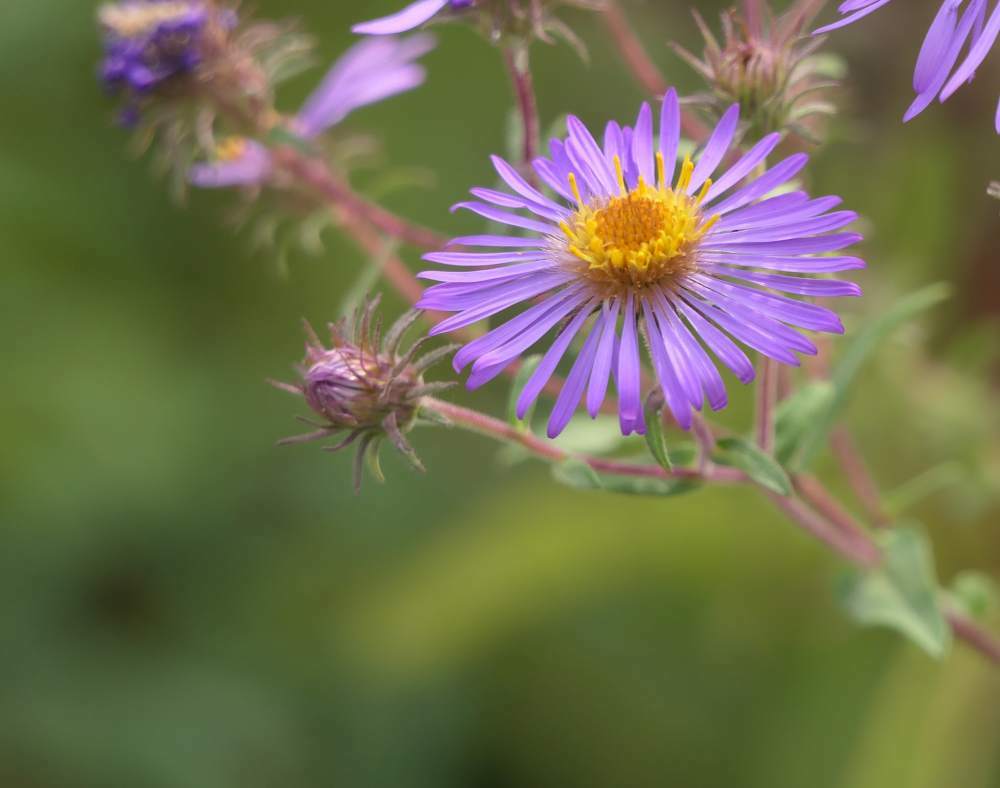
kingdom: Plantae
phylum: Tracheophyta
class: Magnoliopsida
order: Asterales
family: Asteraceae
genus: Symphyotrichum
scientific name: Symphyotrichum novae-angliae
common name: Michaelmas daisy
